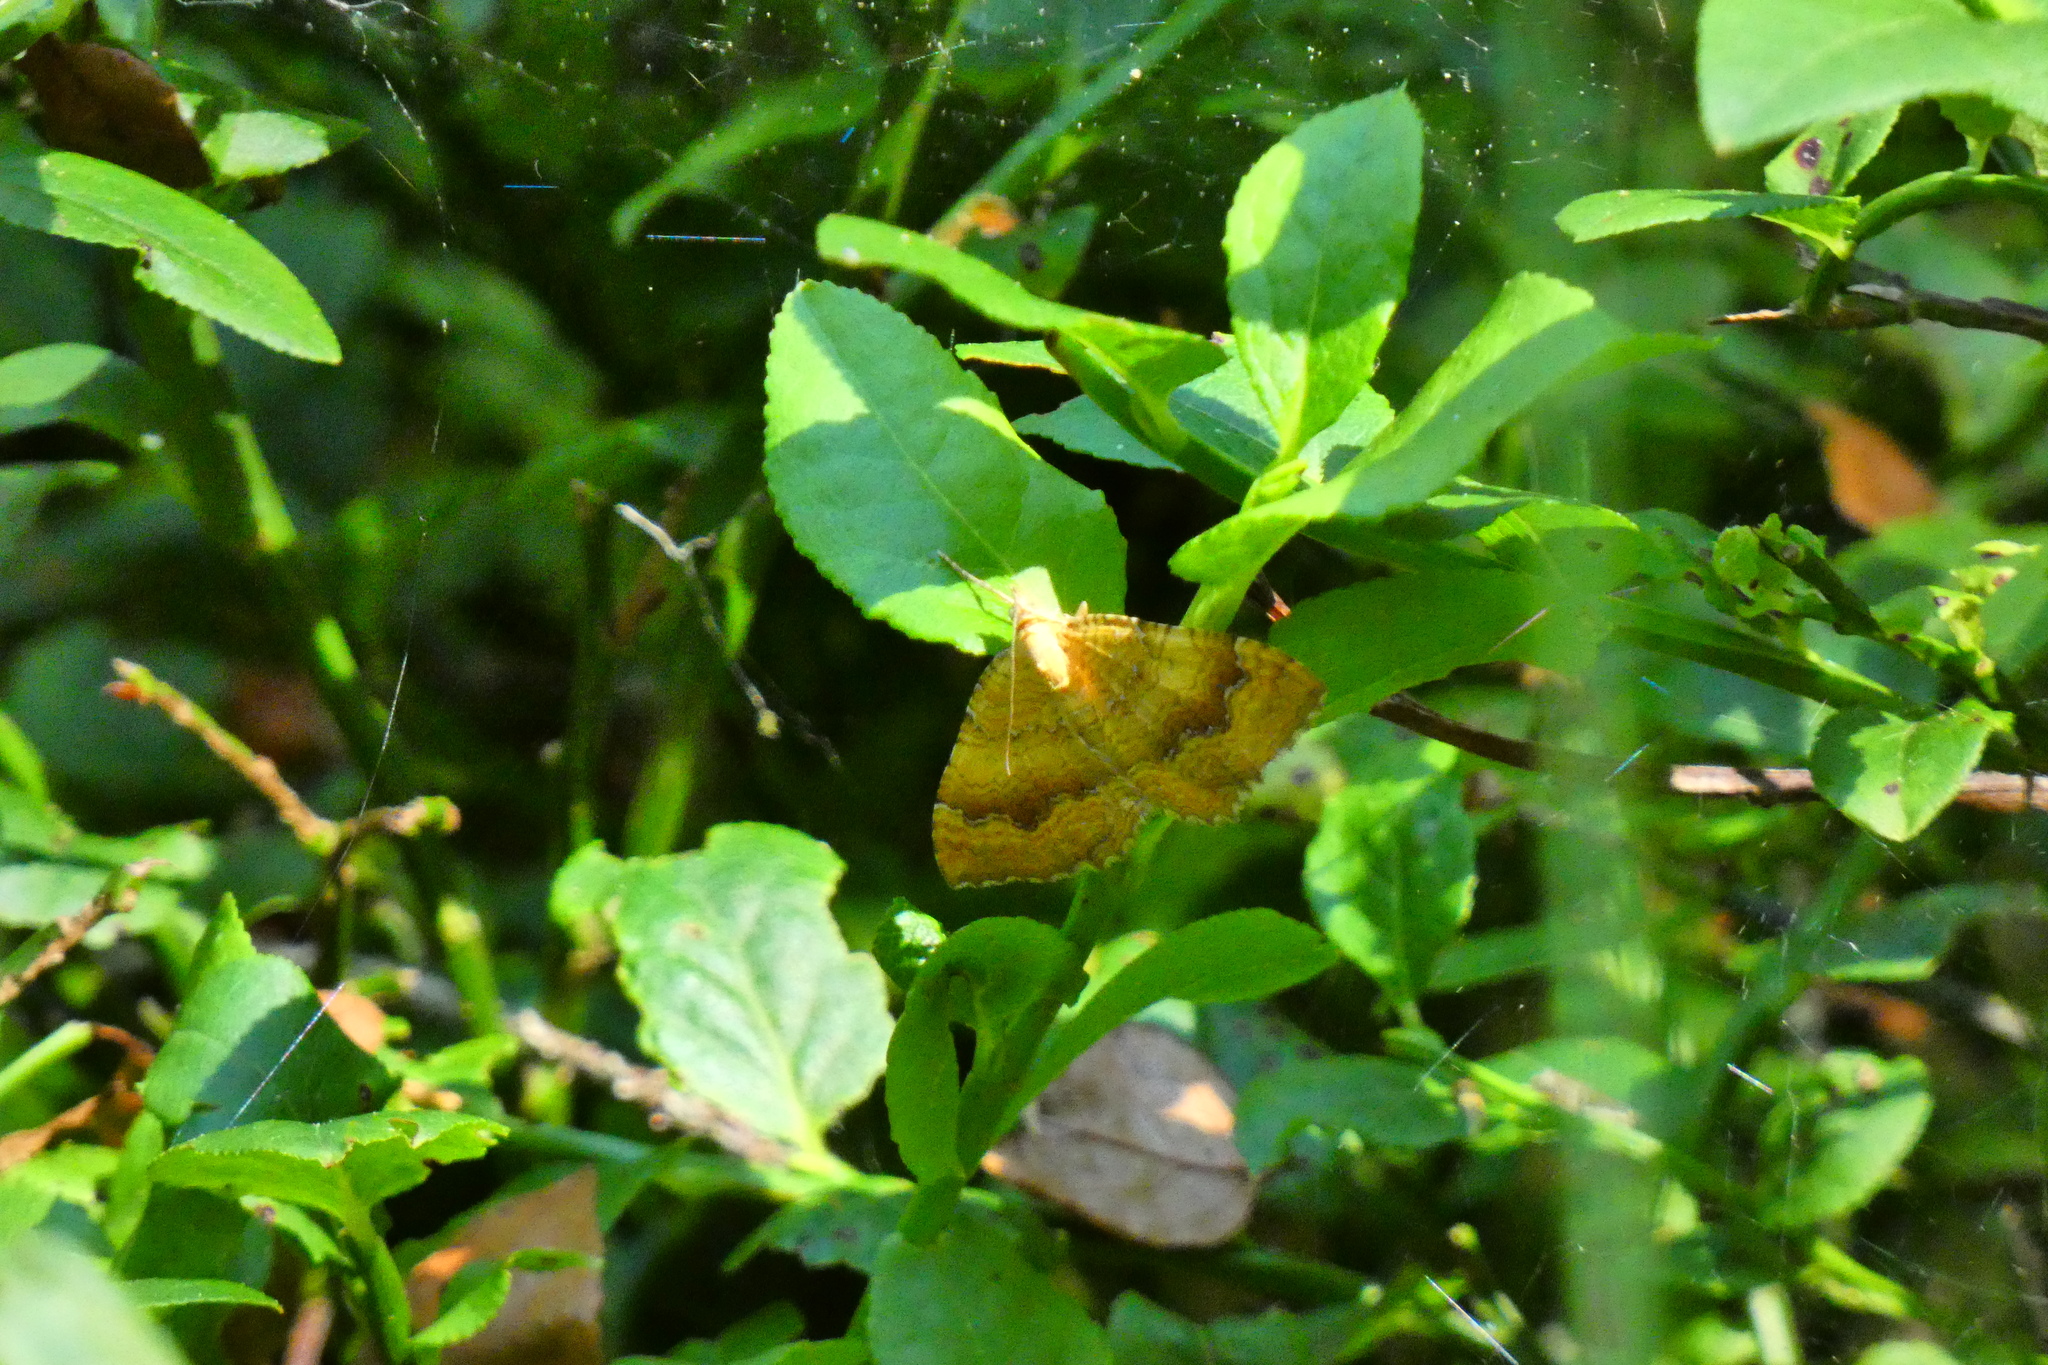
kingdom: Animalia
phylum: Arthropoda
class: Insecta
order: Lepidoptera
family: Geometridae
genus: Camptogramma
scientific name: Camptogramma bilineata
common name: Yellow shell
